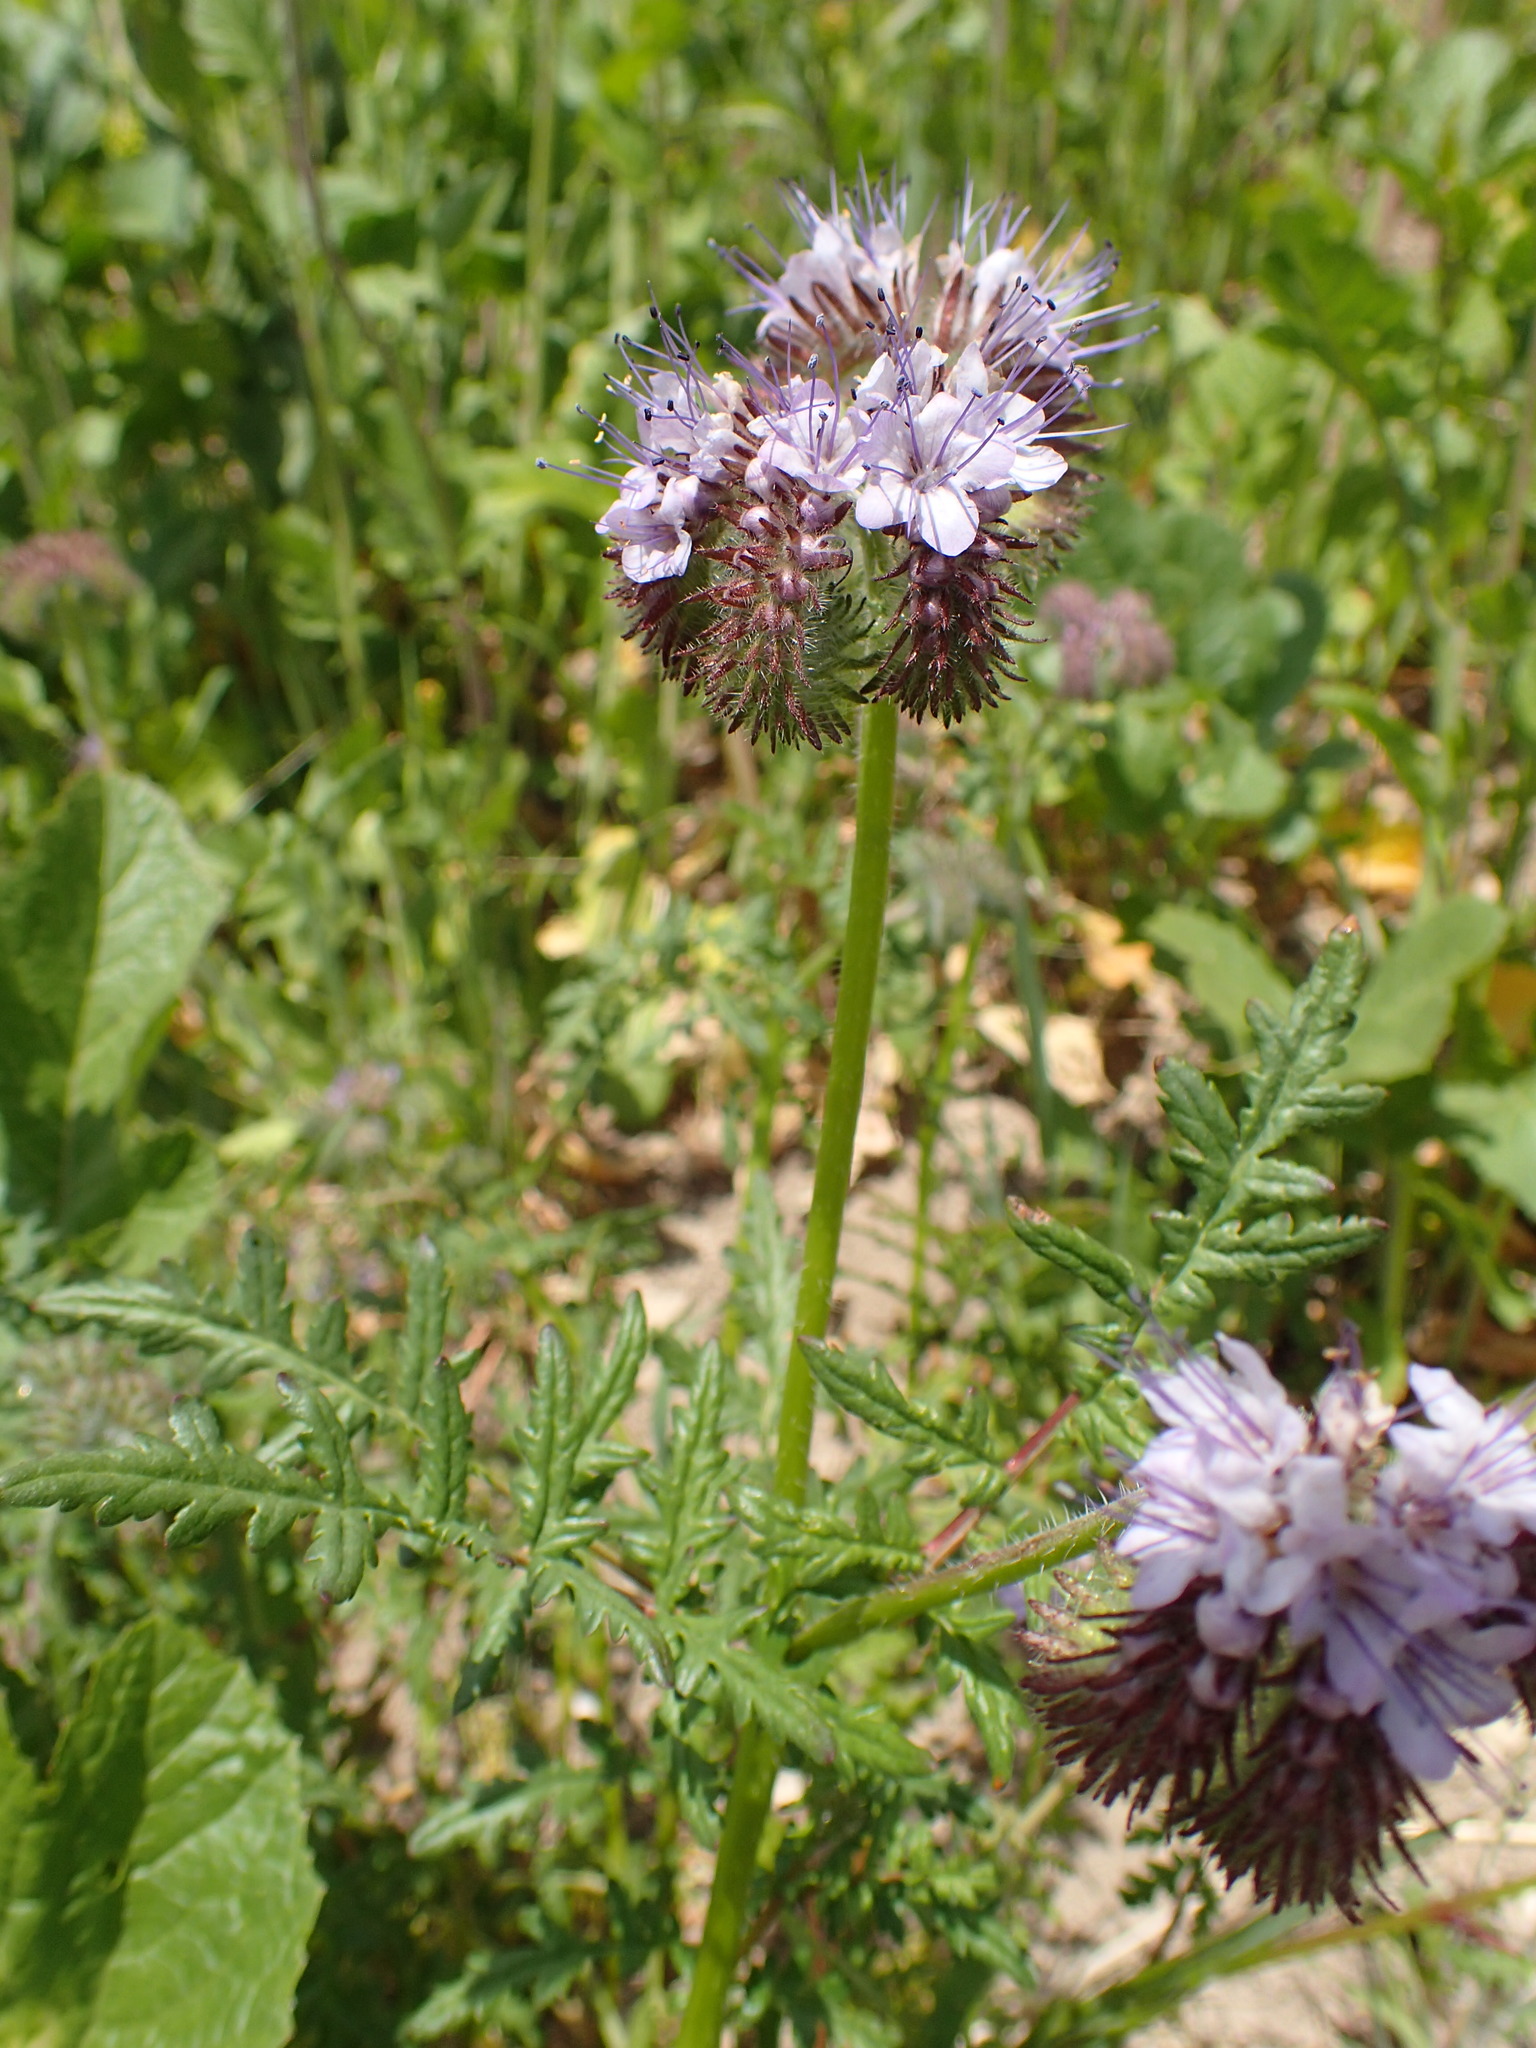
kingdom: Plantae
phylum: Tracheophyta
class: Magnoliopsida
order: Boraginales
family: Hydrophyllaceae
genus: Phacelia
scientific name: Phacelia tanacetifolia
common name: Phacelia
